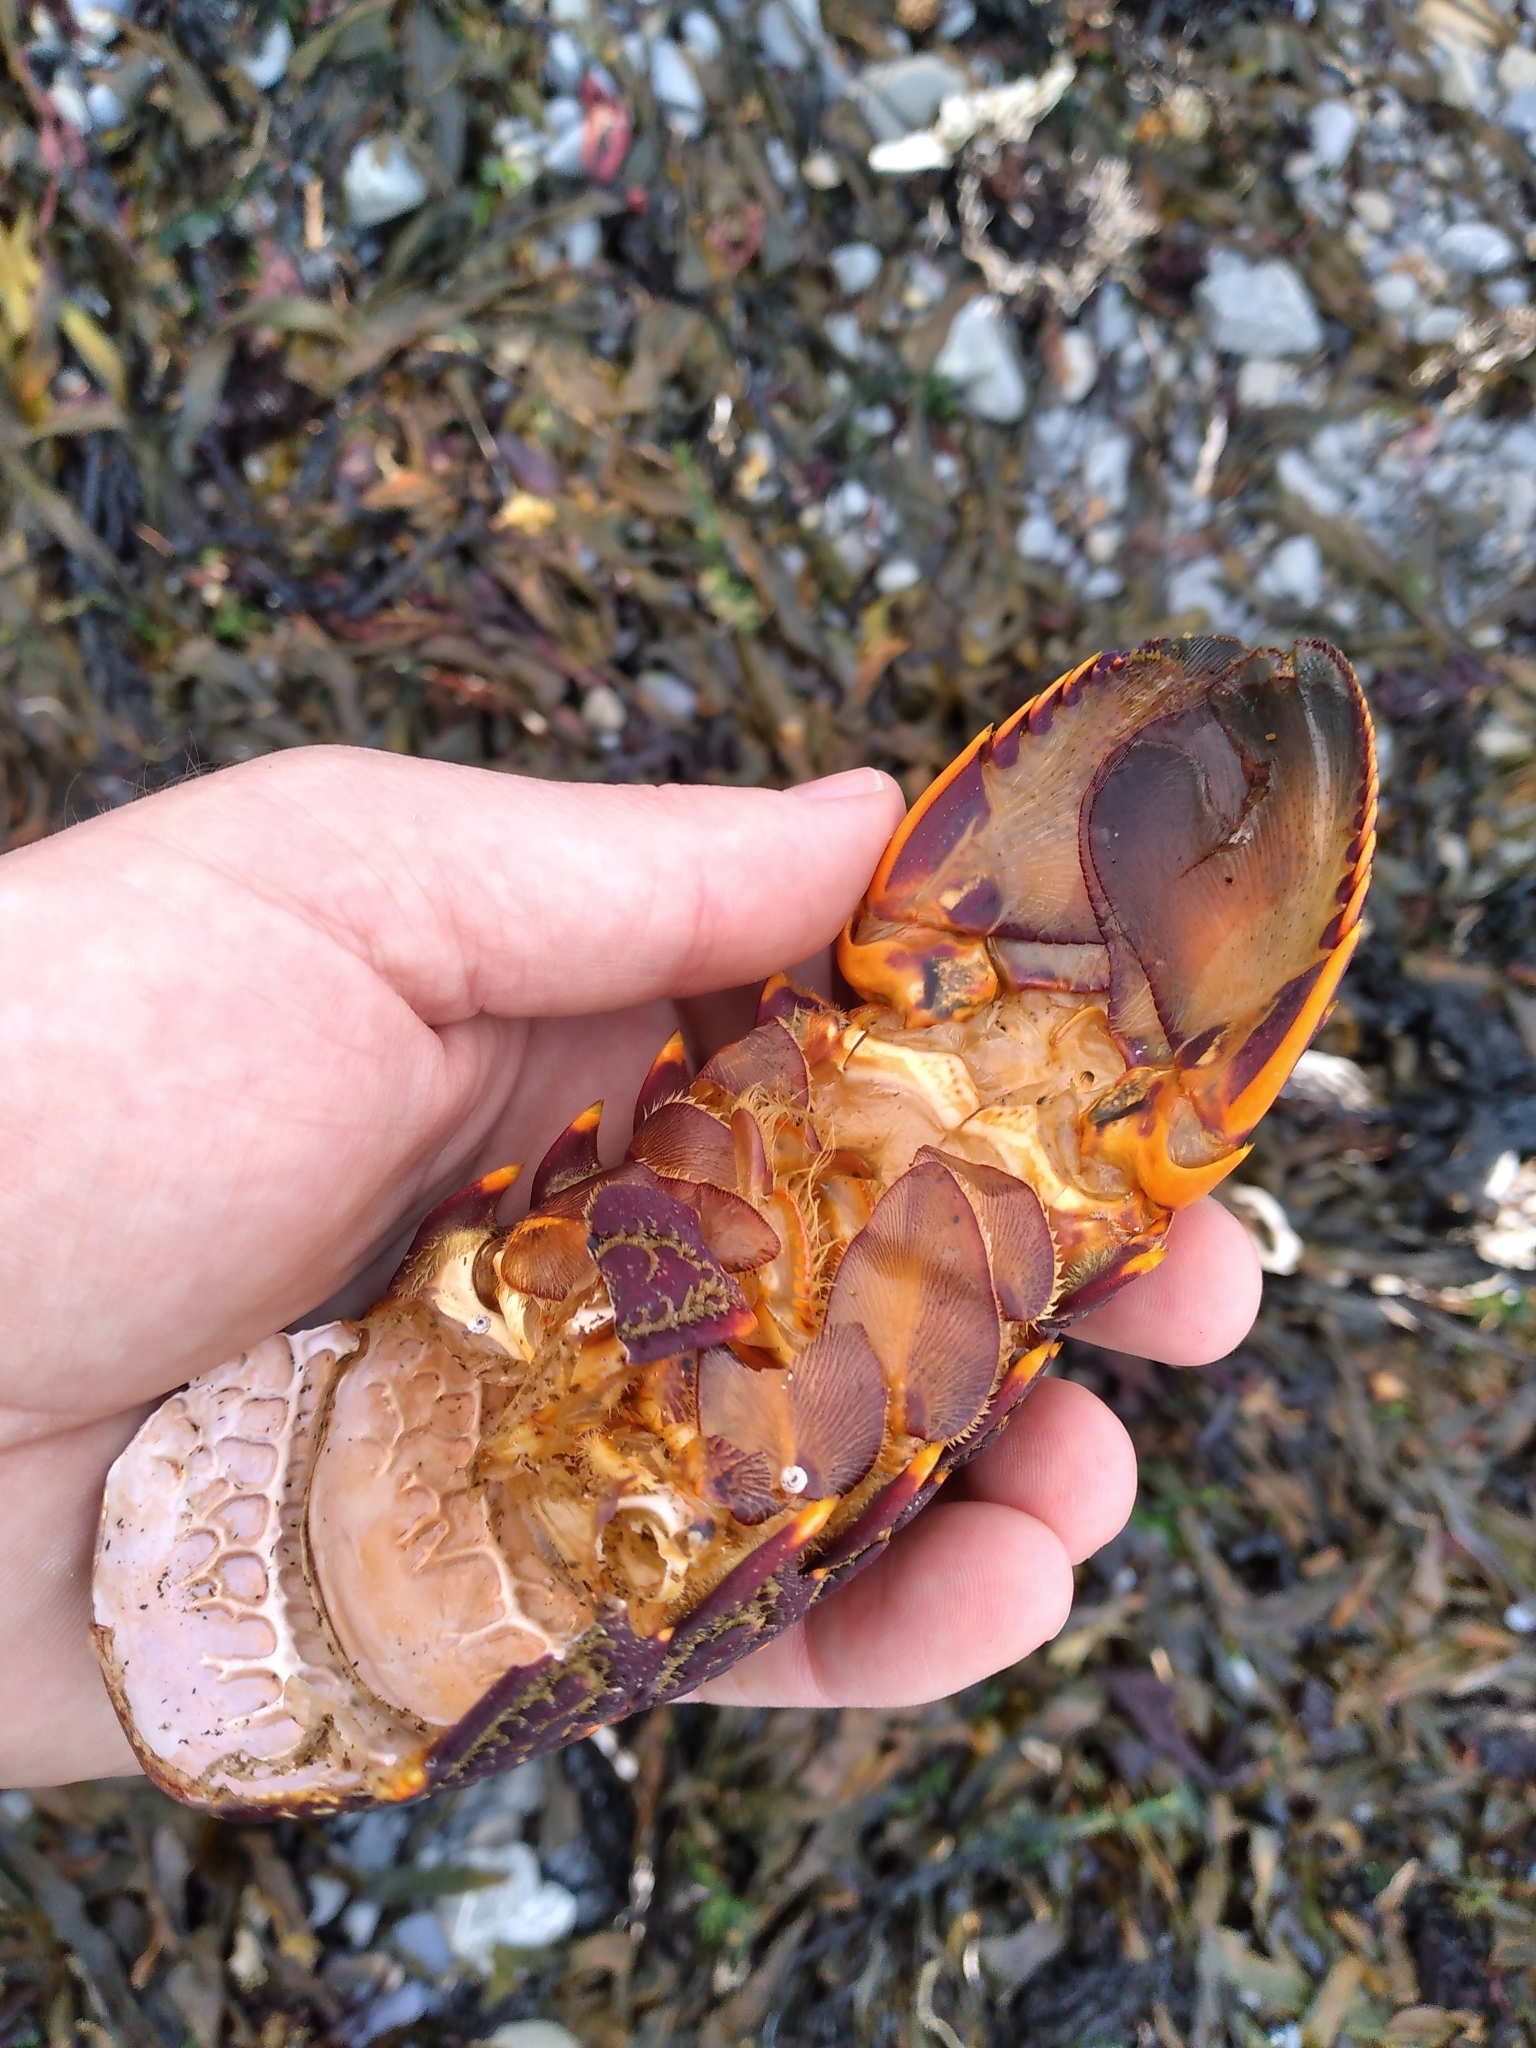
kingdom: Animalia
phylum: Arthropoda
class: Malacostraca
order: Decapoda
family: Palinuridae
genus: Jasus
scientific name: Jasus edwardsii
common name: Red rock lobster
